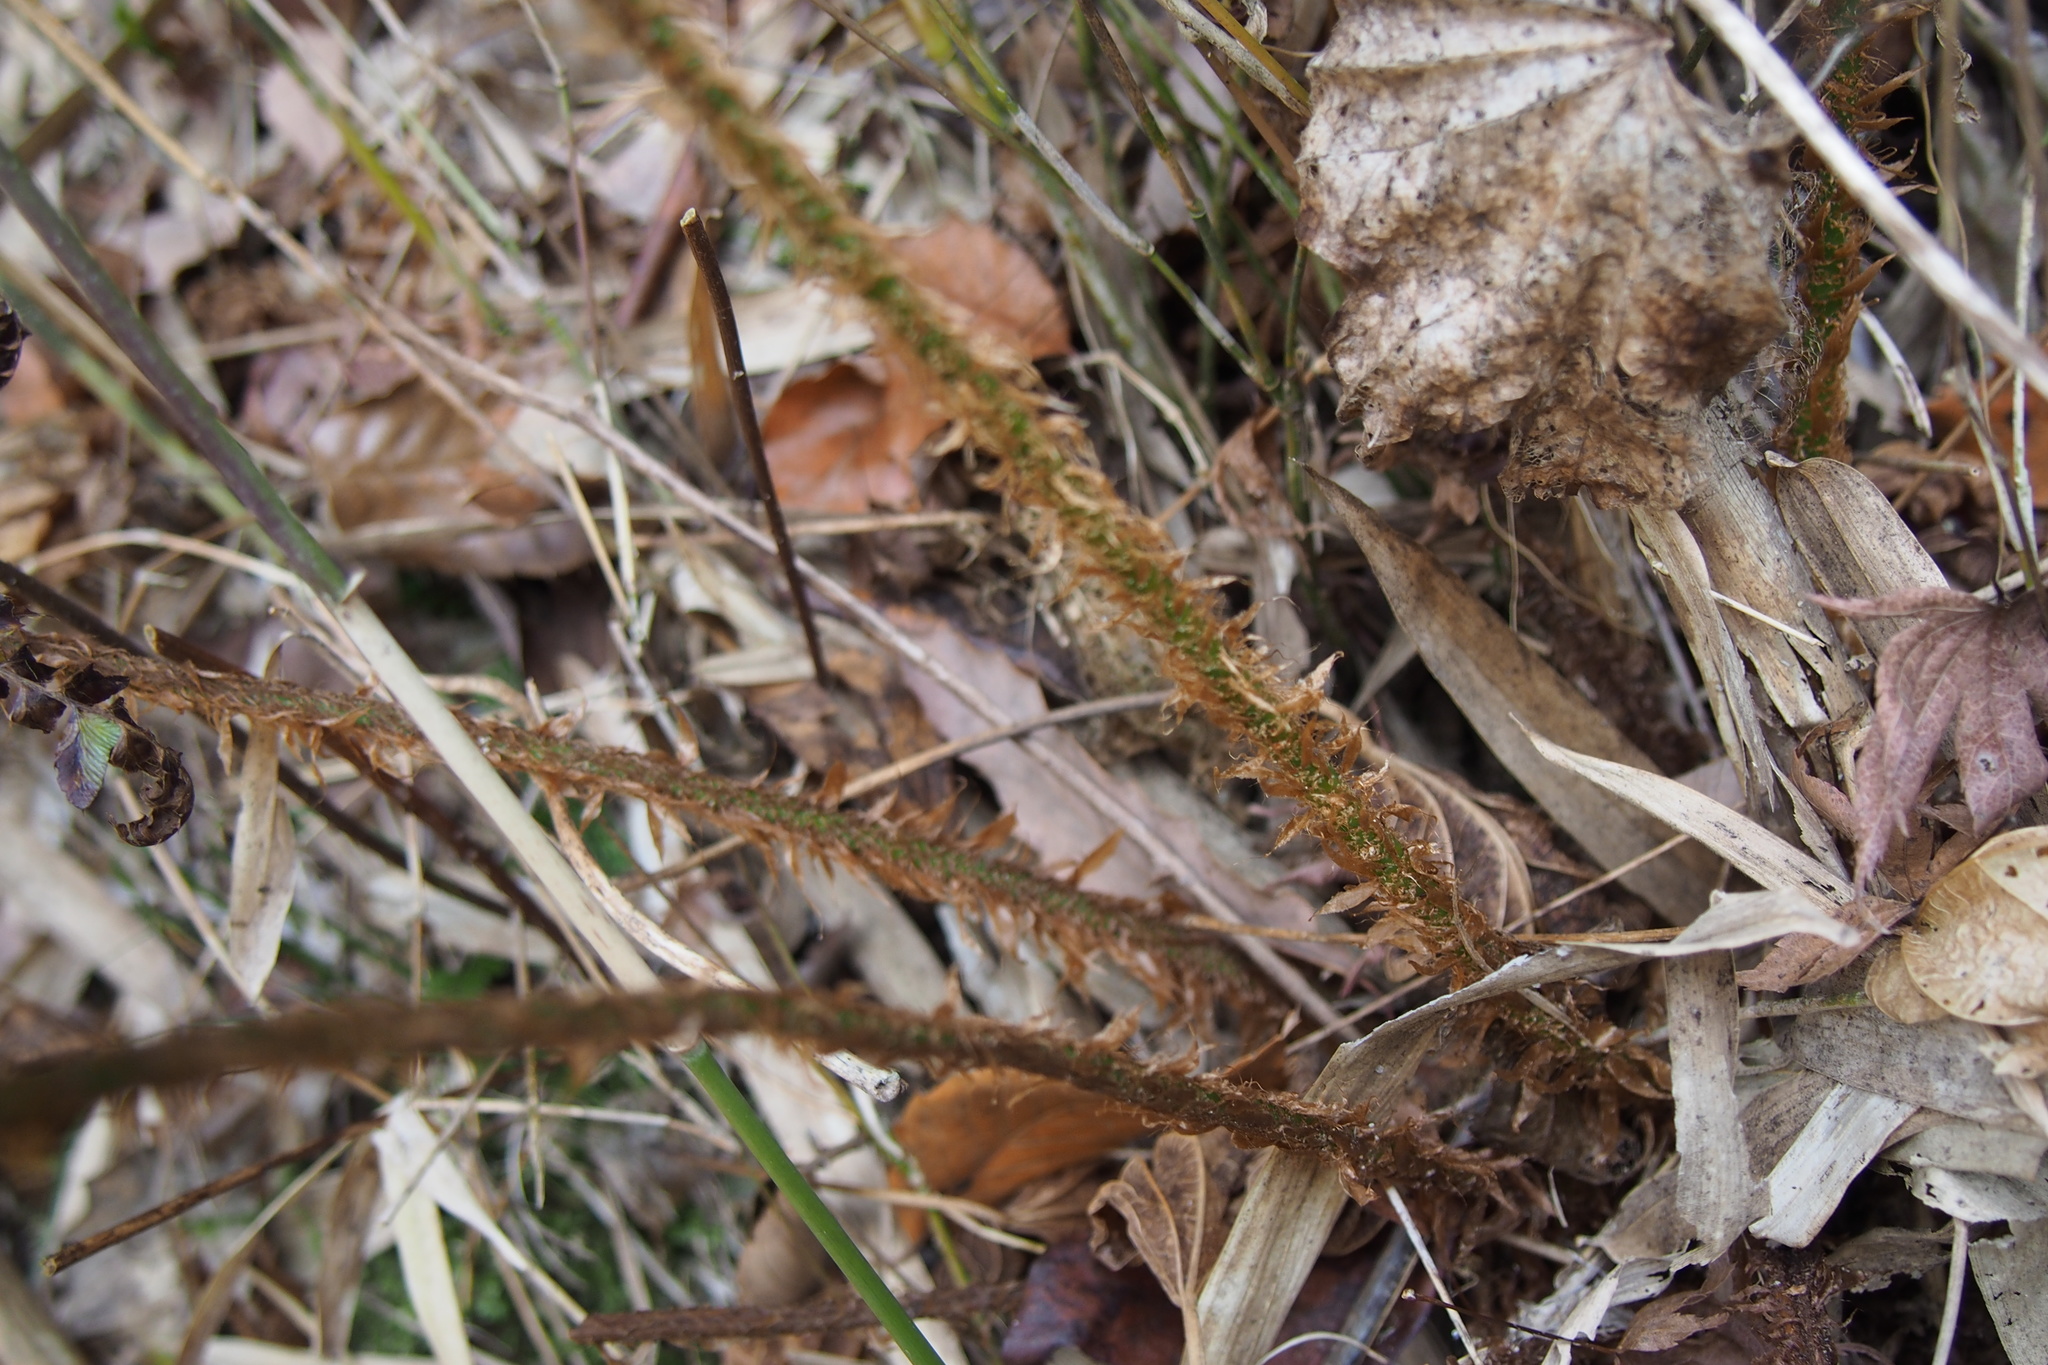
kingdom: Plantae
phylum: Tracheophyta
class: Polypodiopsida
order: Polypodiales
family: Dryopteridaceae
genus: Polystichum
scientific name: Polystichum luctuosum
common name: Korean rockfern
